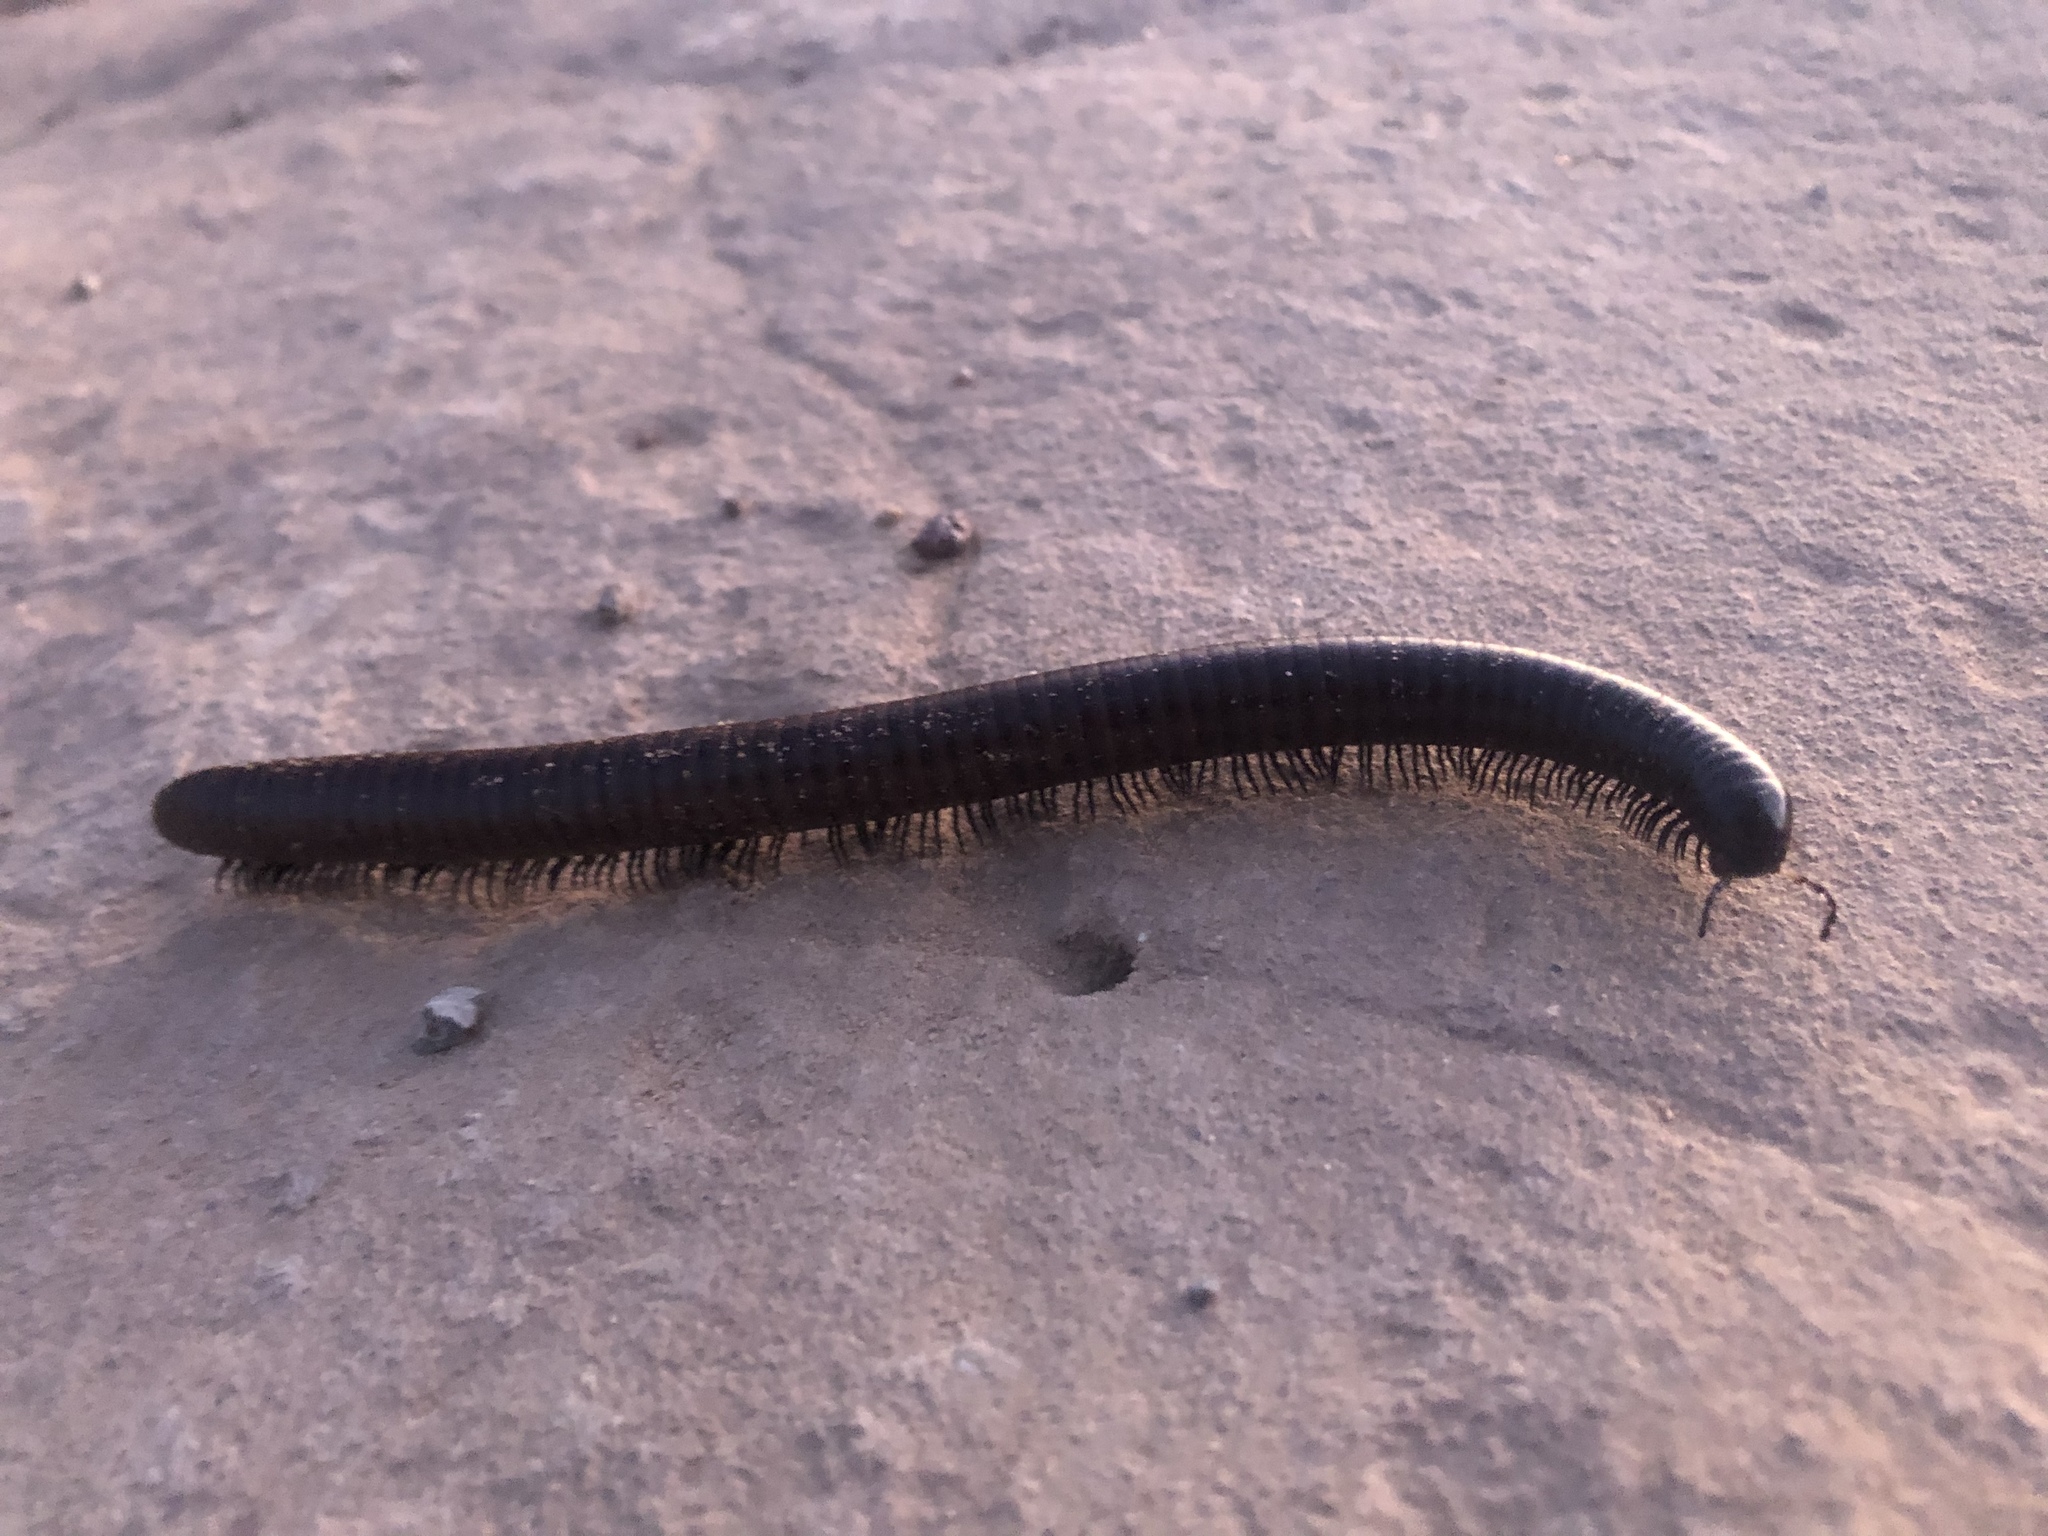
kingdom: Animalia
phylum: Arthropoda
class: Diplopoda
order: Spirostreptida
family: Spirostreptidae
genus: Orthoporus
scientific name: Orthoporus ornatus
